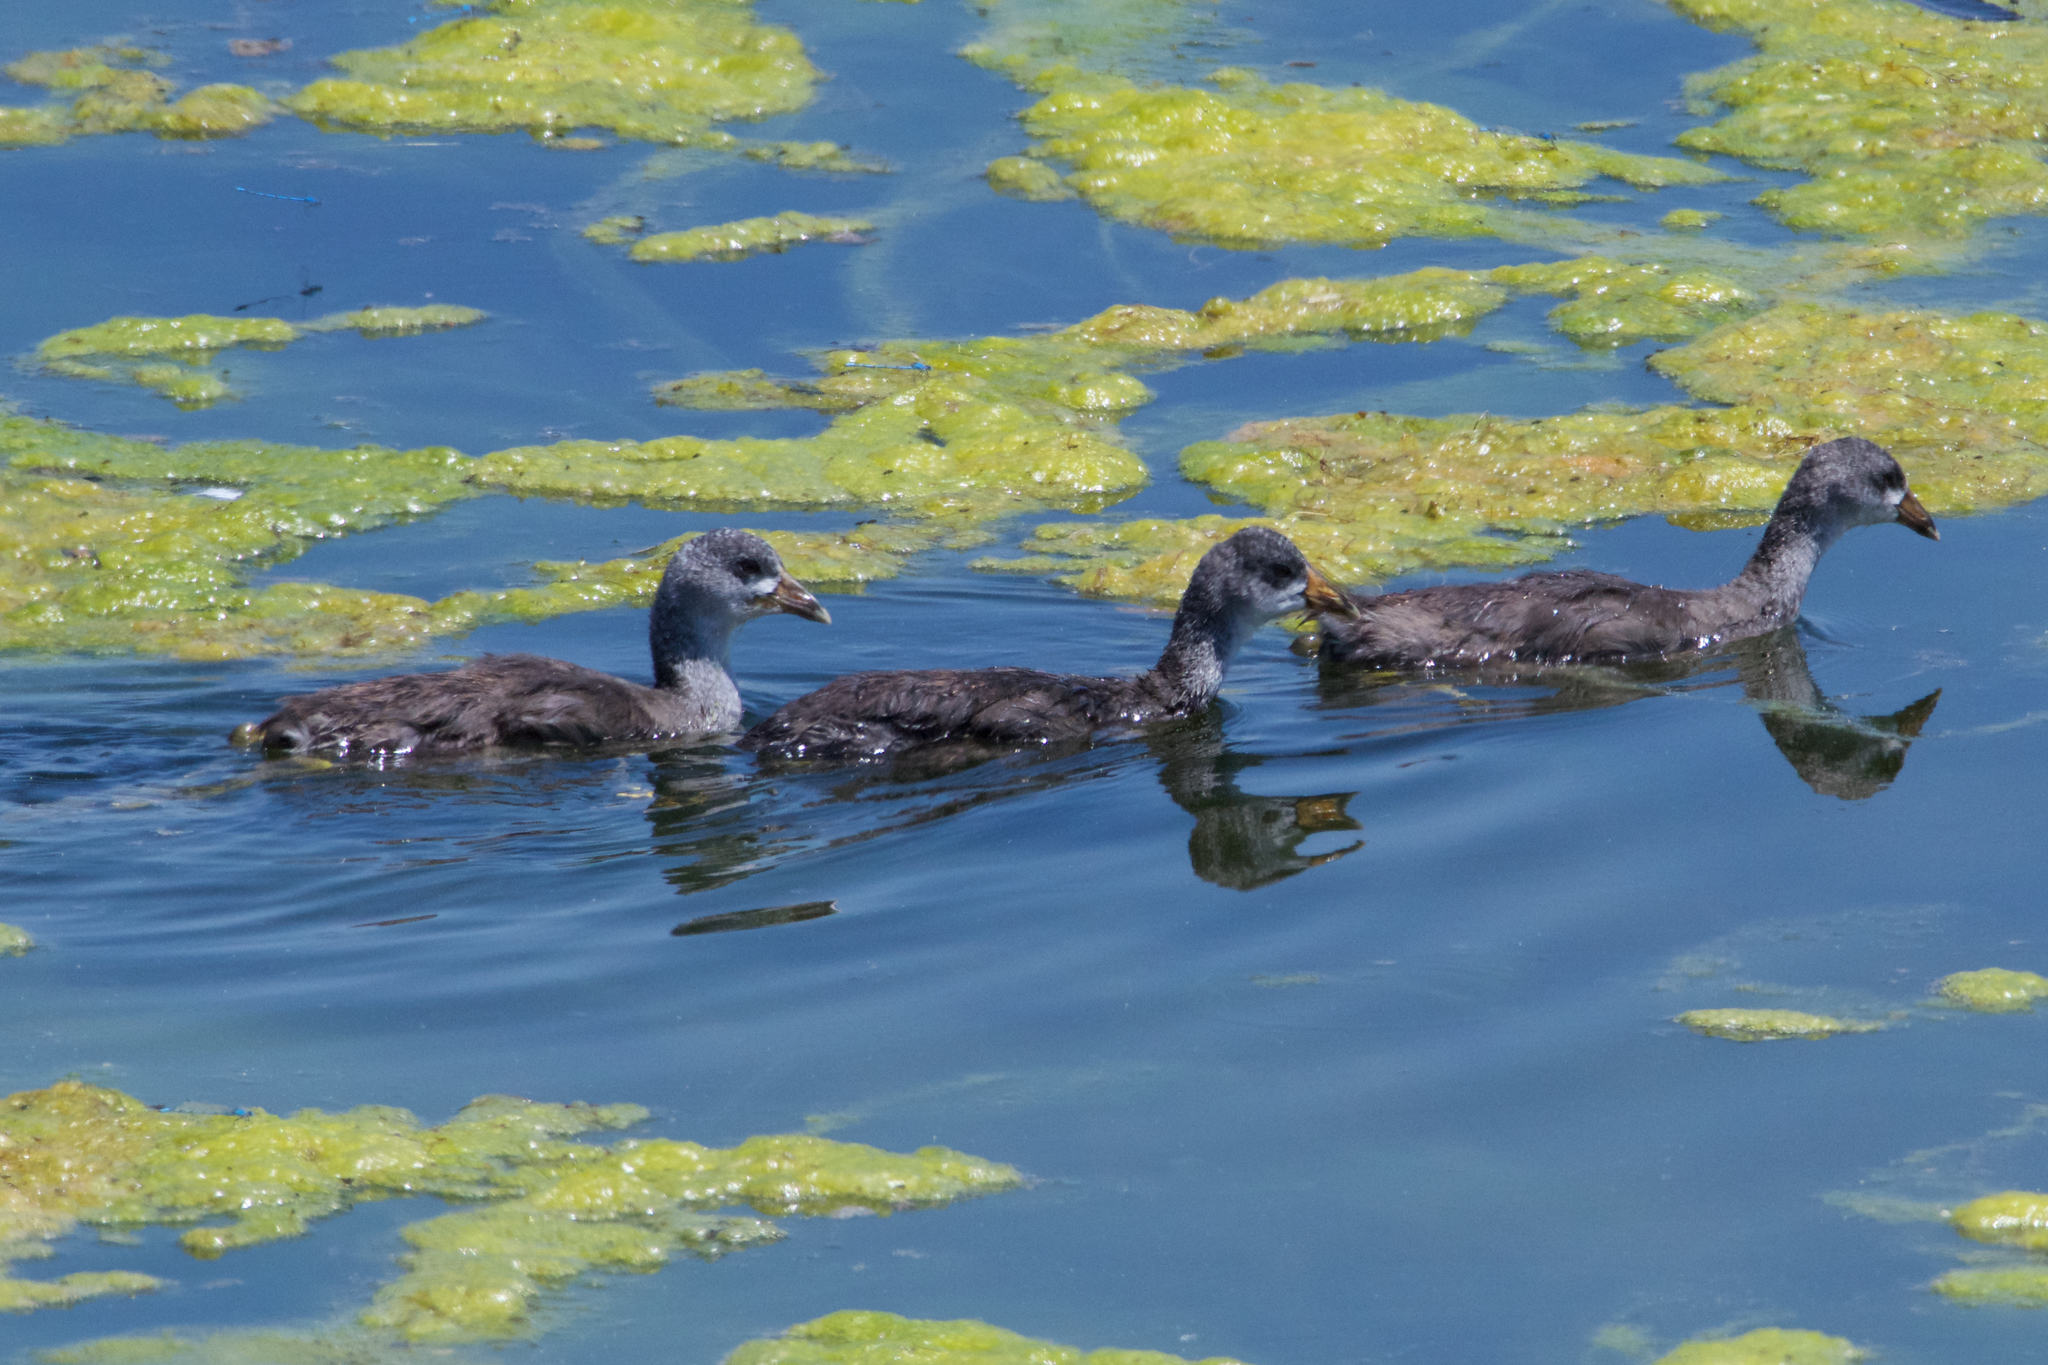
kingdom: Animalia
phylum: Chordata
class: Aves
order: Gruiformes
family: Rallidae
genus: Fulica
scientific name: Fulica americana
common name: American coot
